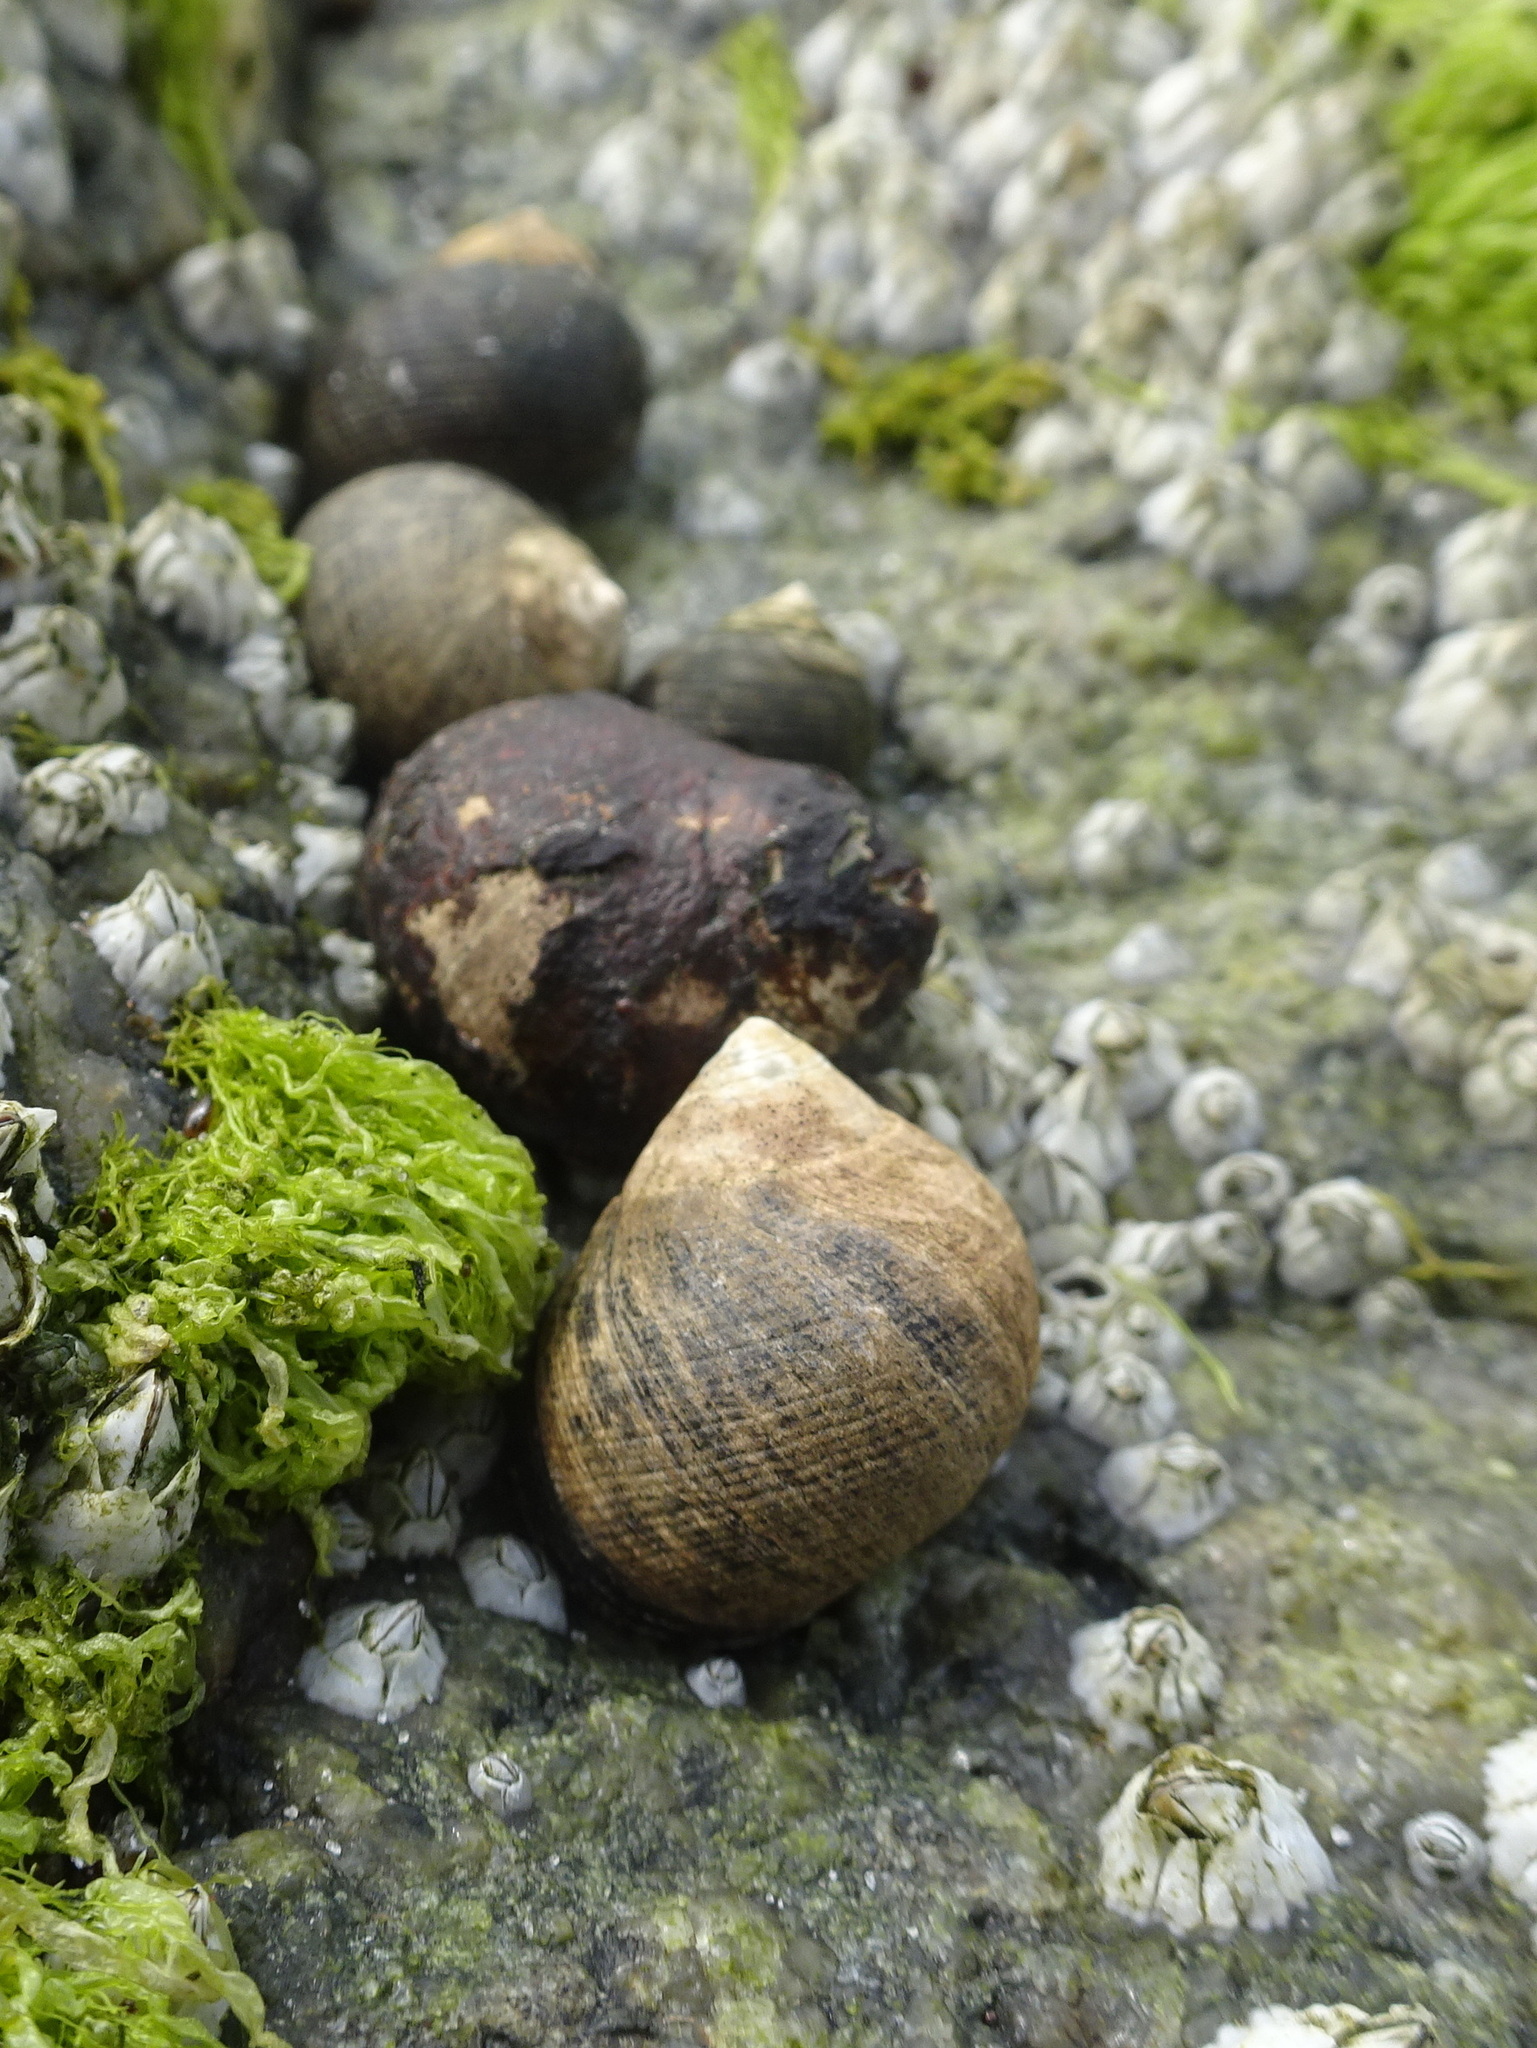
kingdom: Animalia
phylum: Mollusca
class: Gastropoda
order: Littorinimorpha
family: Littorinidae
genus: Littorina
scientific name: Littorina littorea
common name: Common periwinkle
